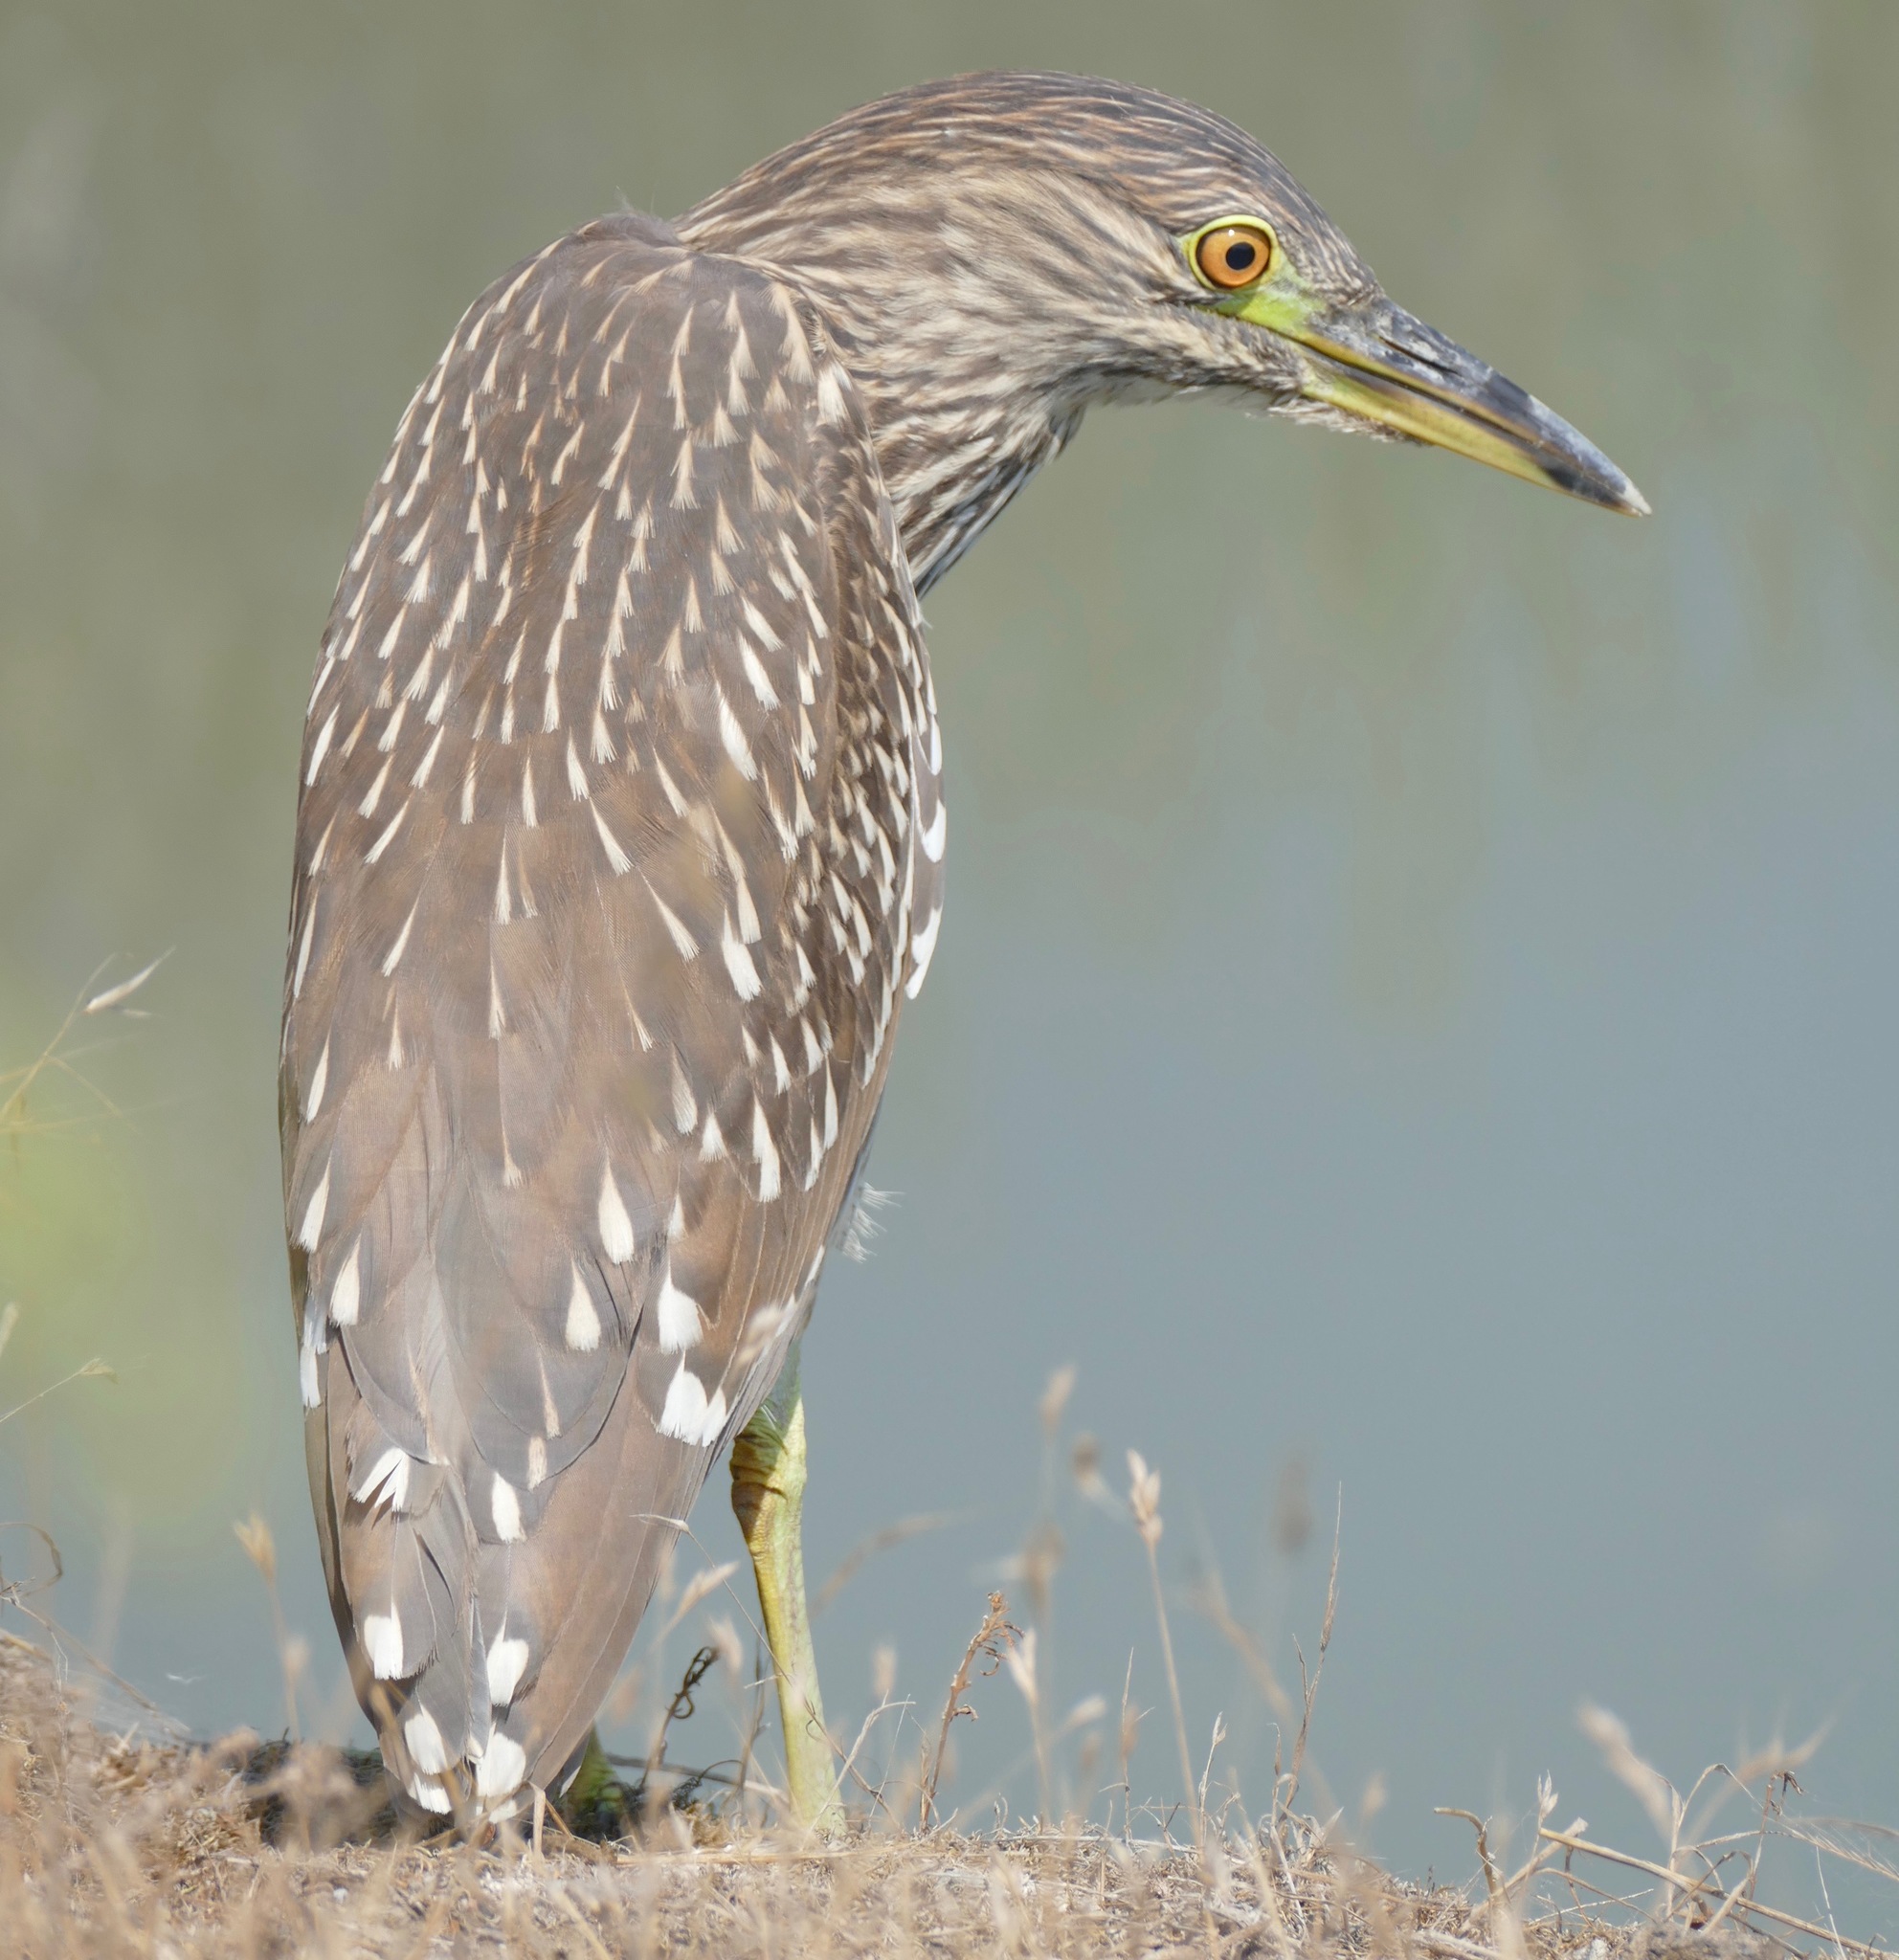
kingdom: Animalia
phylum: Chordata
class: Aves
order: Pelecaniformes
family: Ardeidae
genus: Nycticorax
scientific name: Nycticorax nycticorax
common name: Black-crowned night heron
